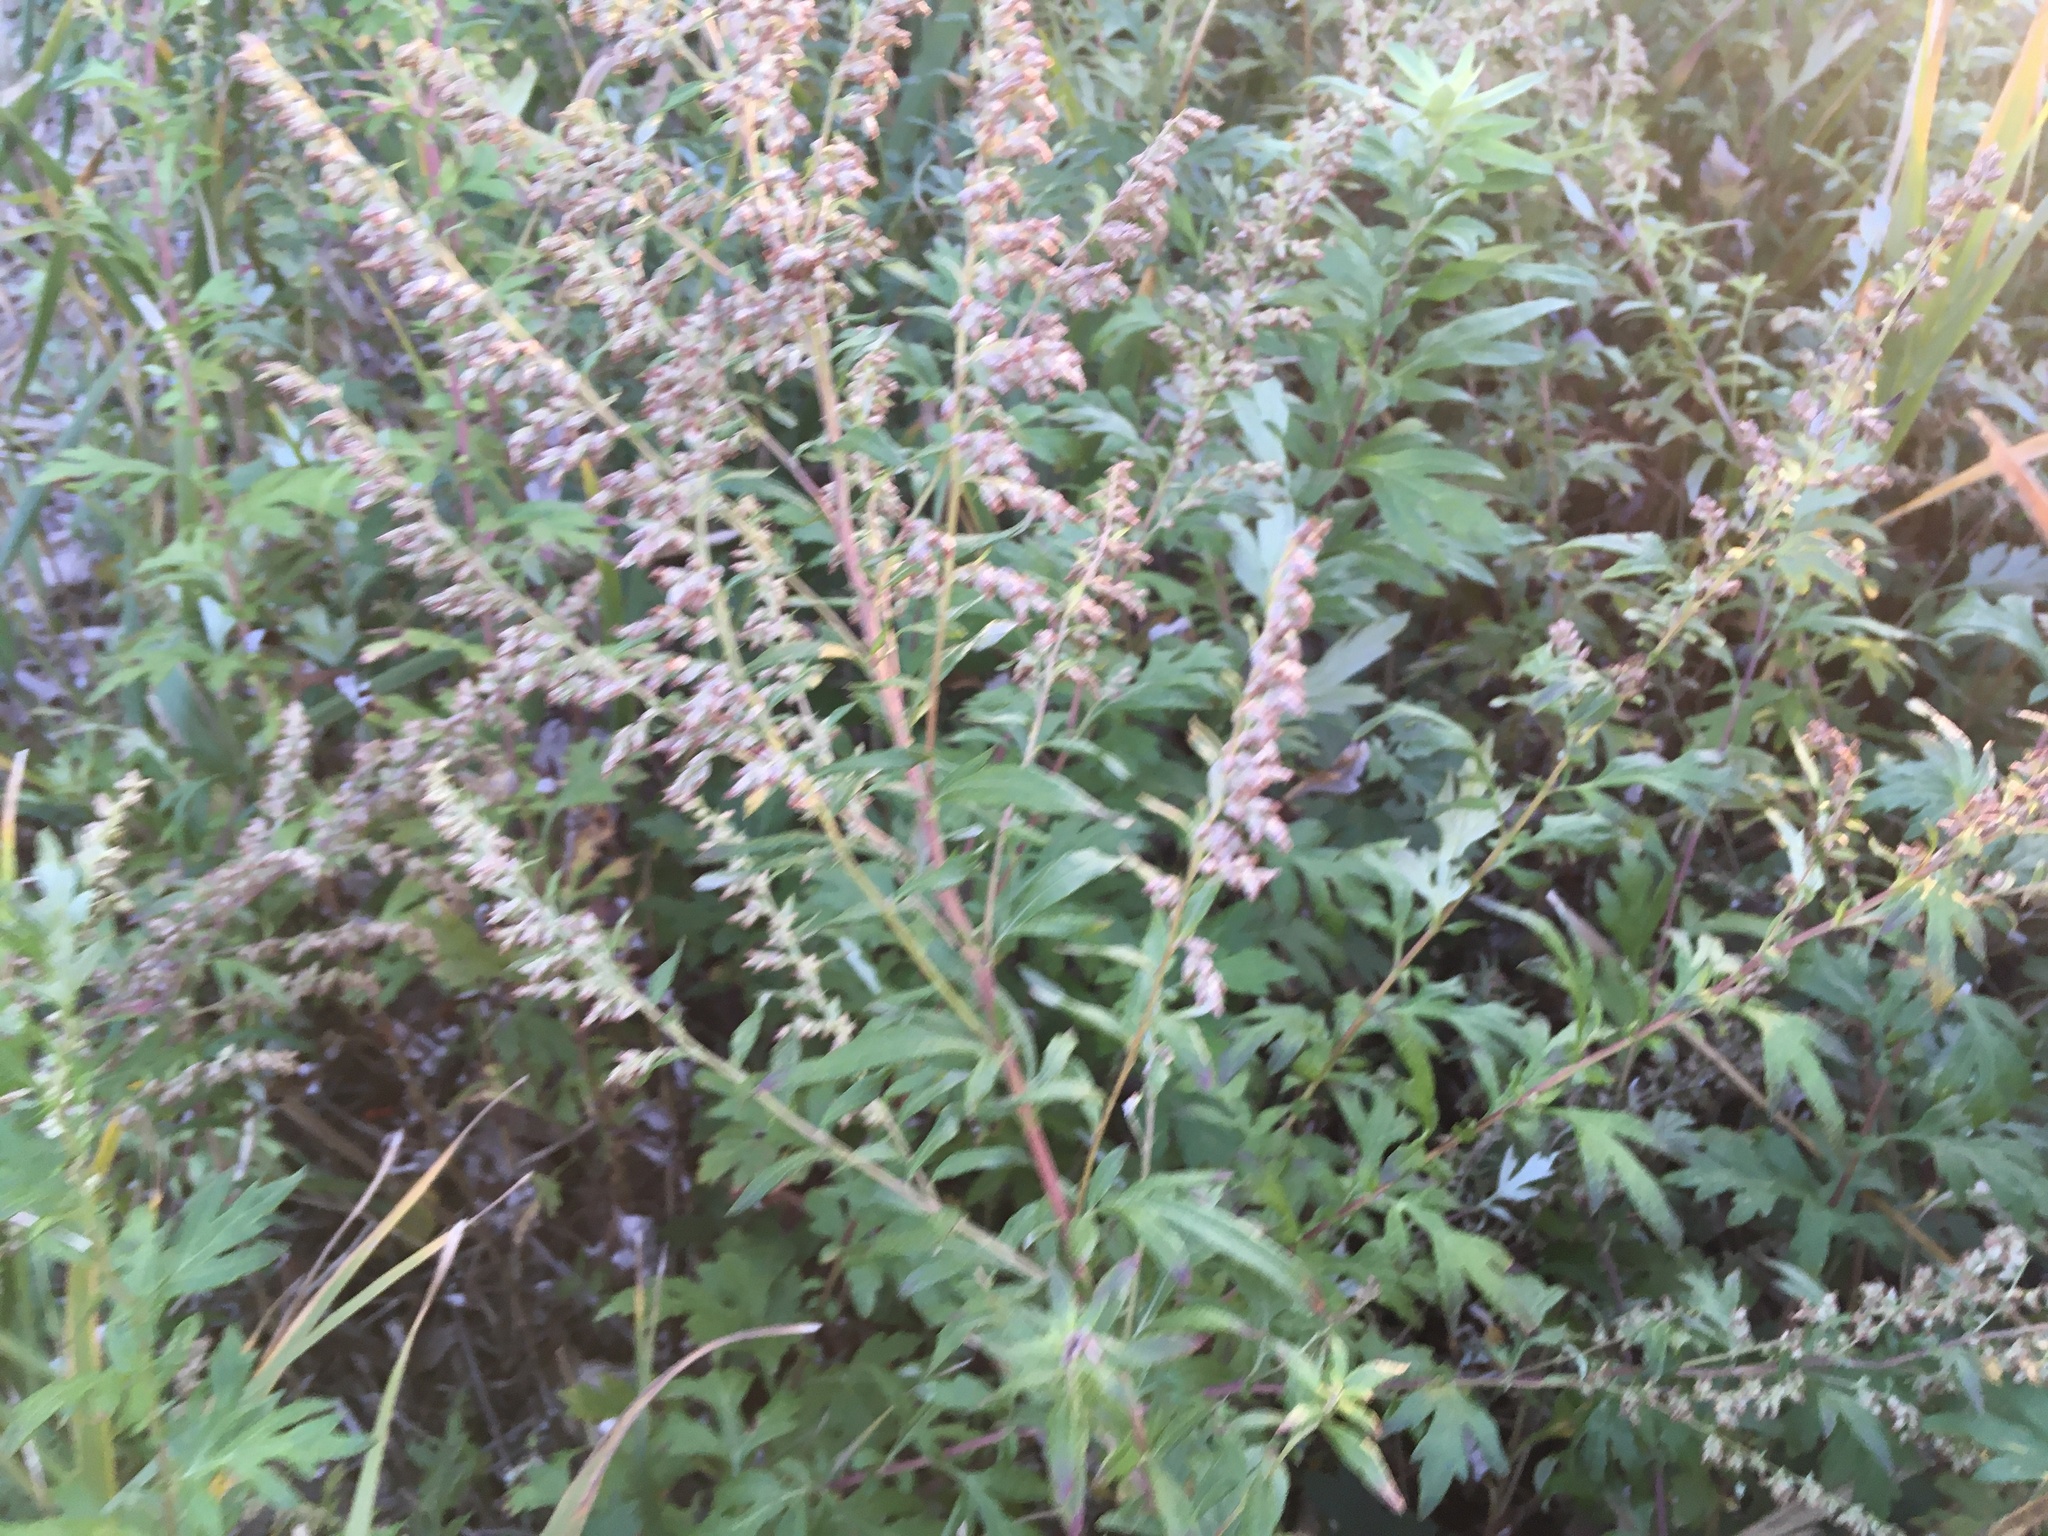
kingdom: Plantae
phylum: Tracheophyta
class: Magnoliopsida
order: Asterales
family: Asteraceae
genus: Artemisia
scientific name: Artemisia vulgaris
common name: Mugwort
